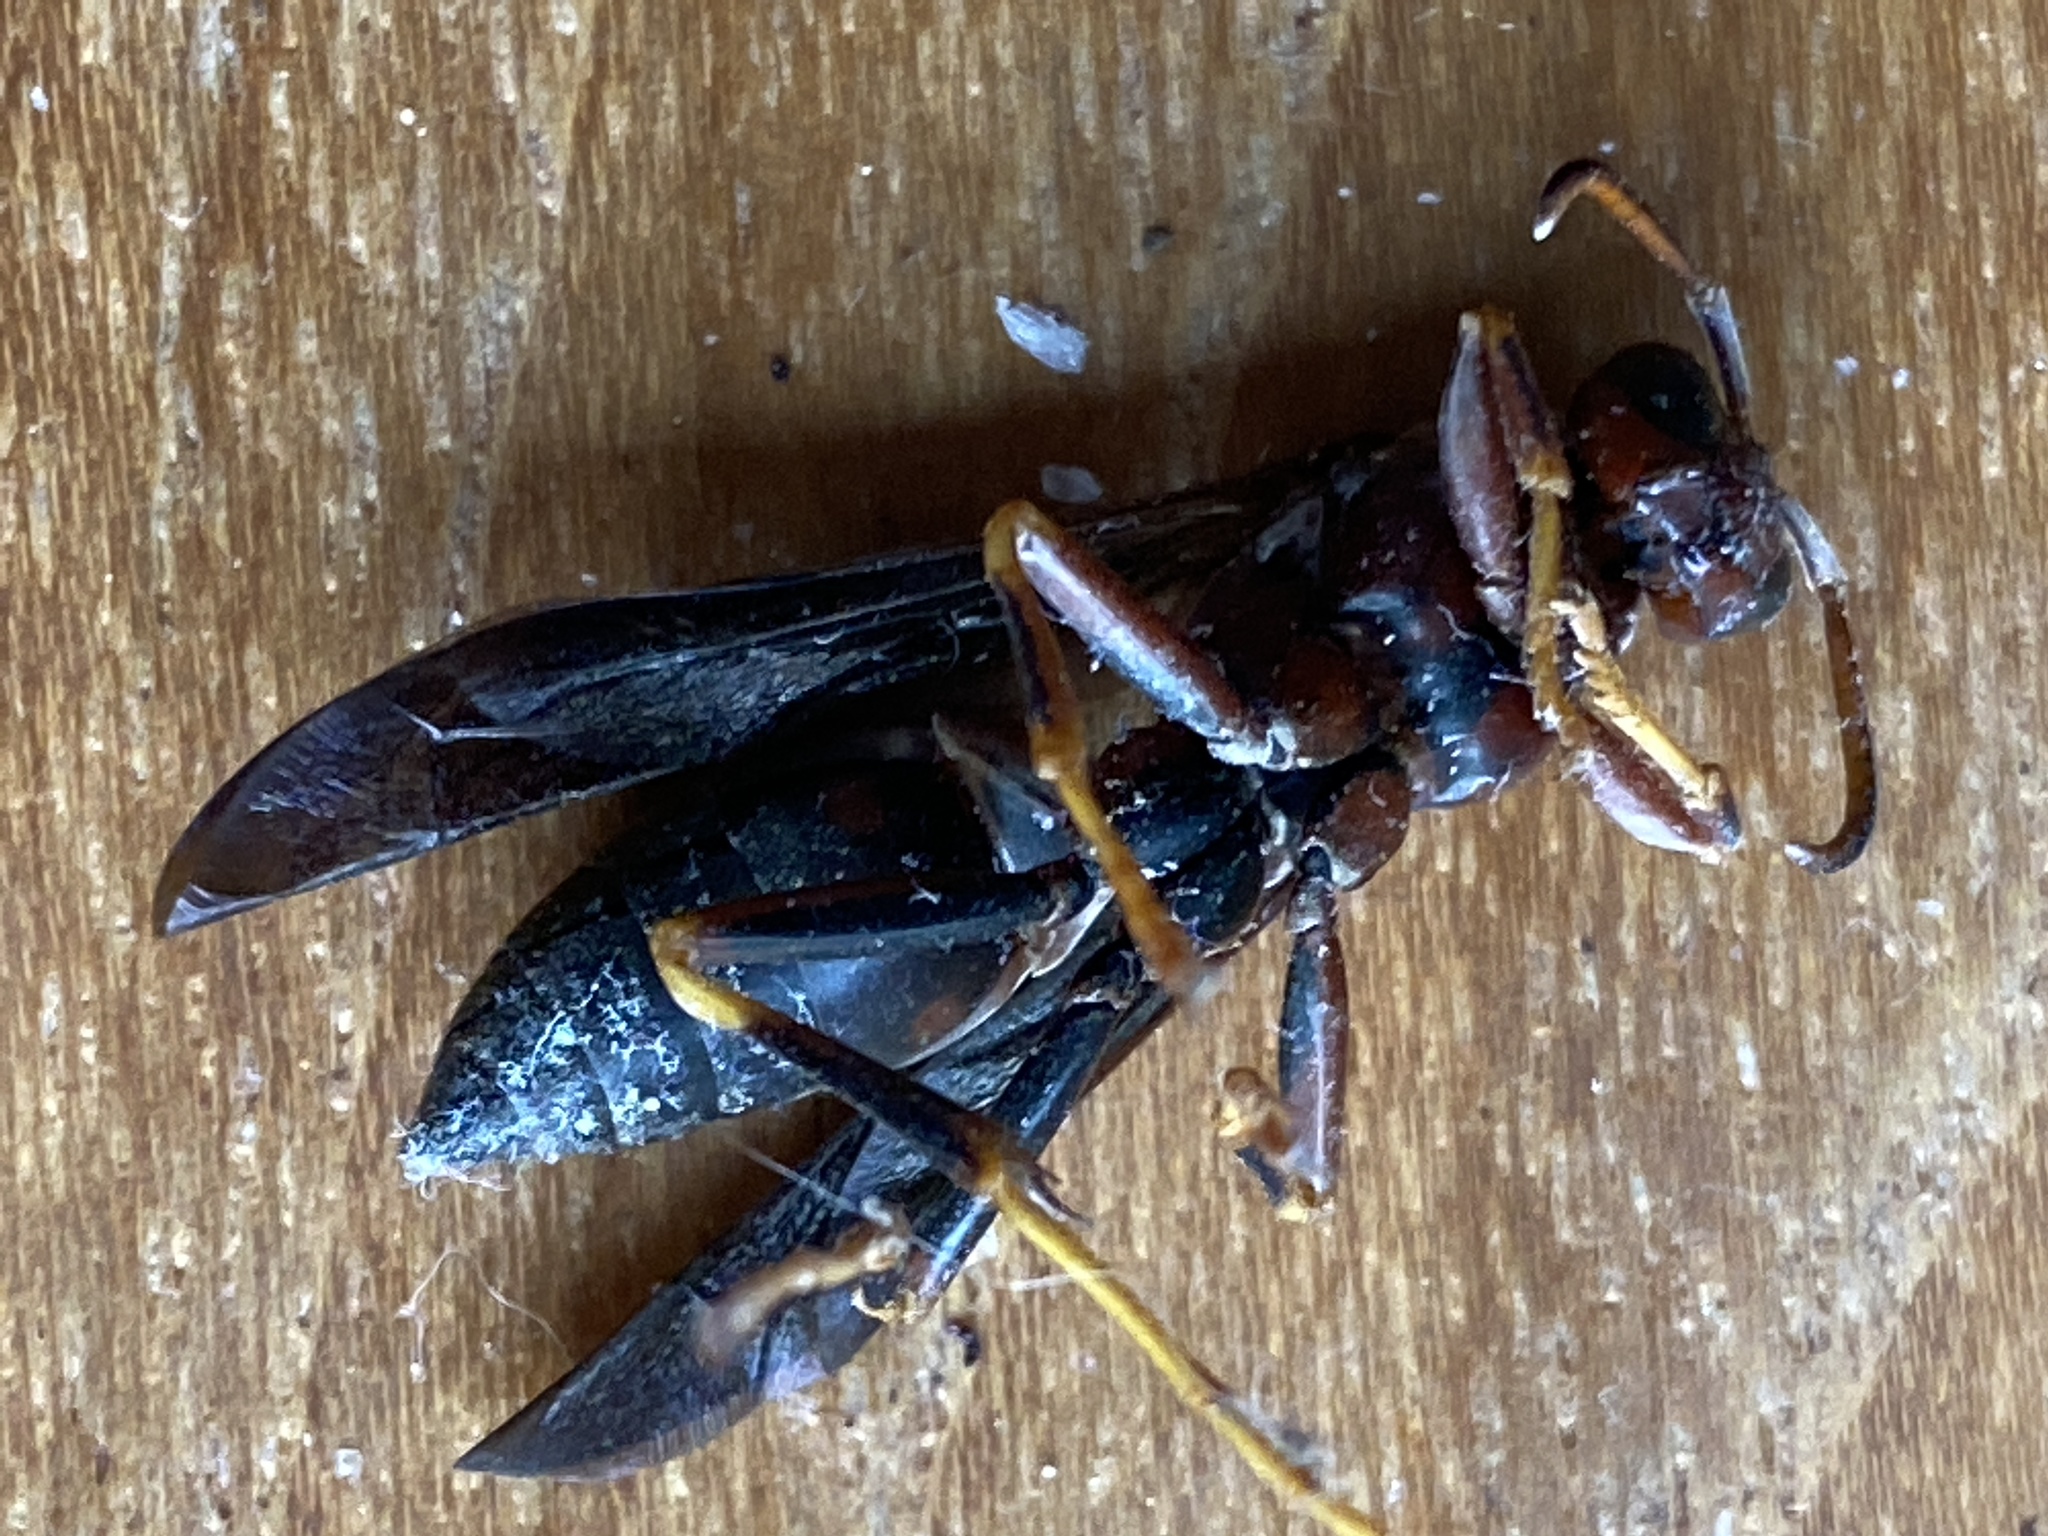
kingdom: Animalia
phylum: Arthropoda
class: Insecta
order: Hymenoptera
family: Vespidae
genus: Fuscopolistes
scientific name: Fuscopolistes
